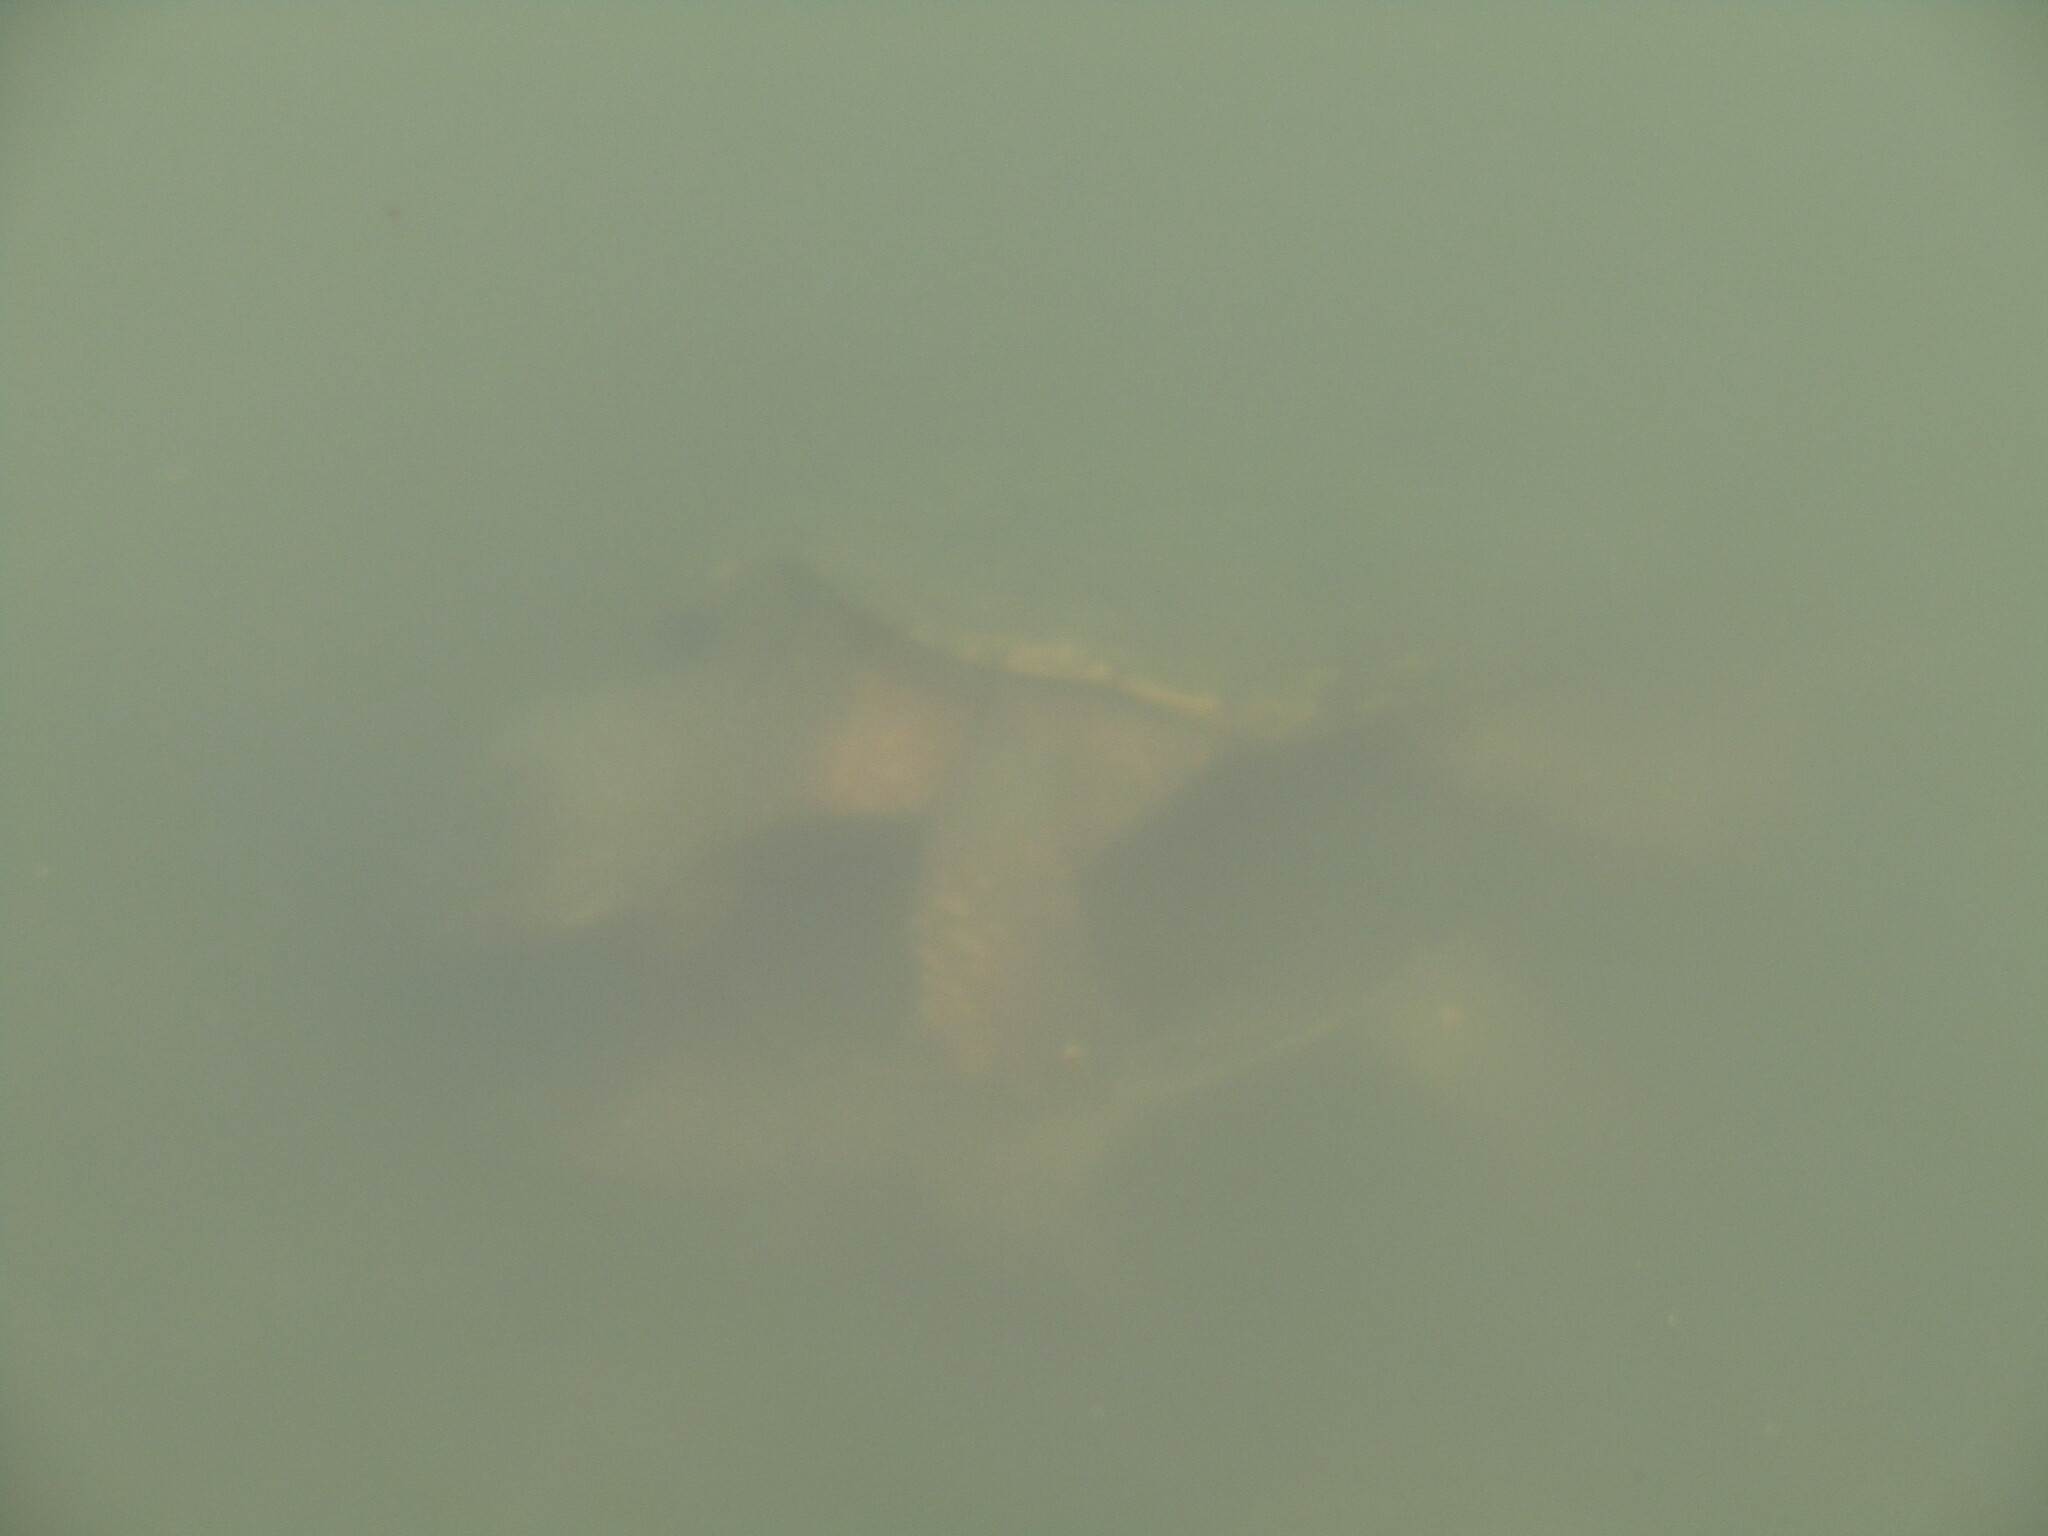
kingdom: Animalia
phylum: Chordata
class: Testudines
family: Chelydridae
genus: Chelydra
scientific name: Chelydra serpentina
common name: Common snapping turtle
